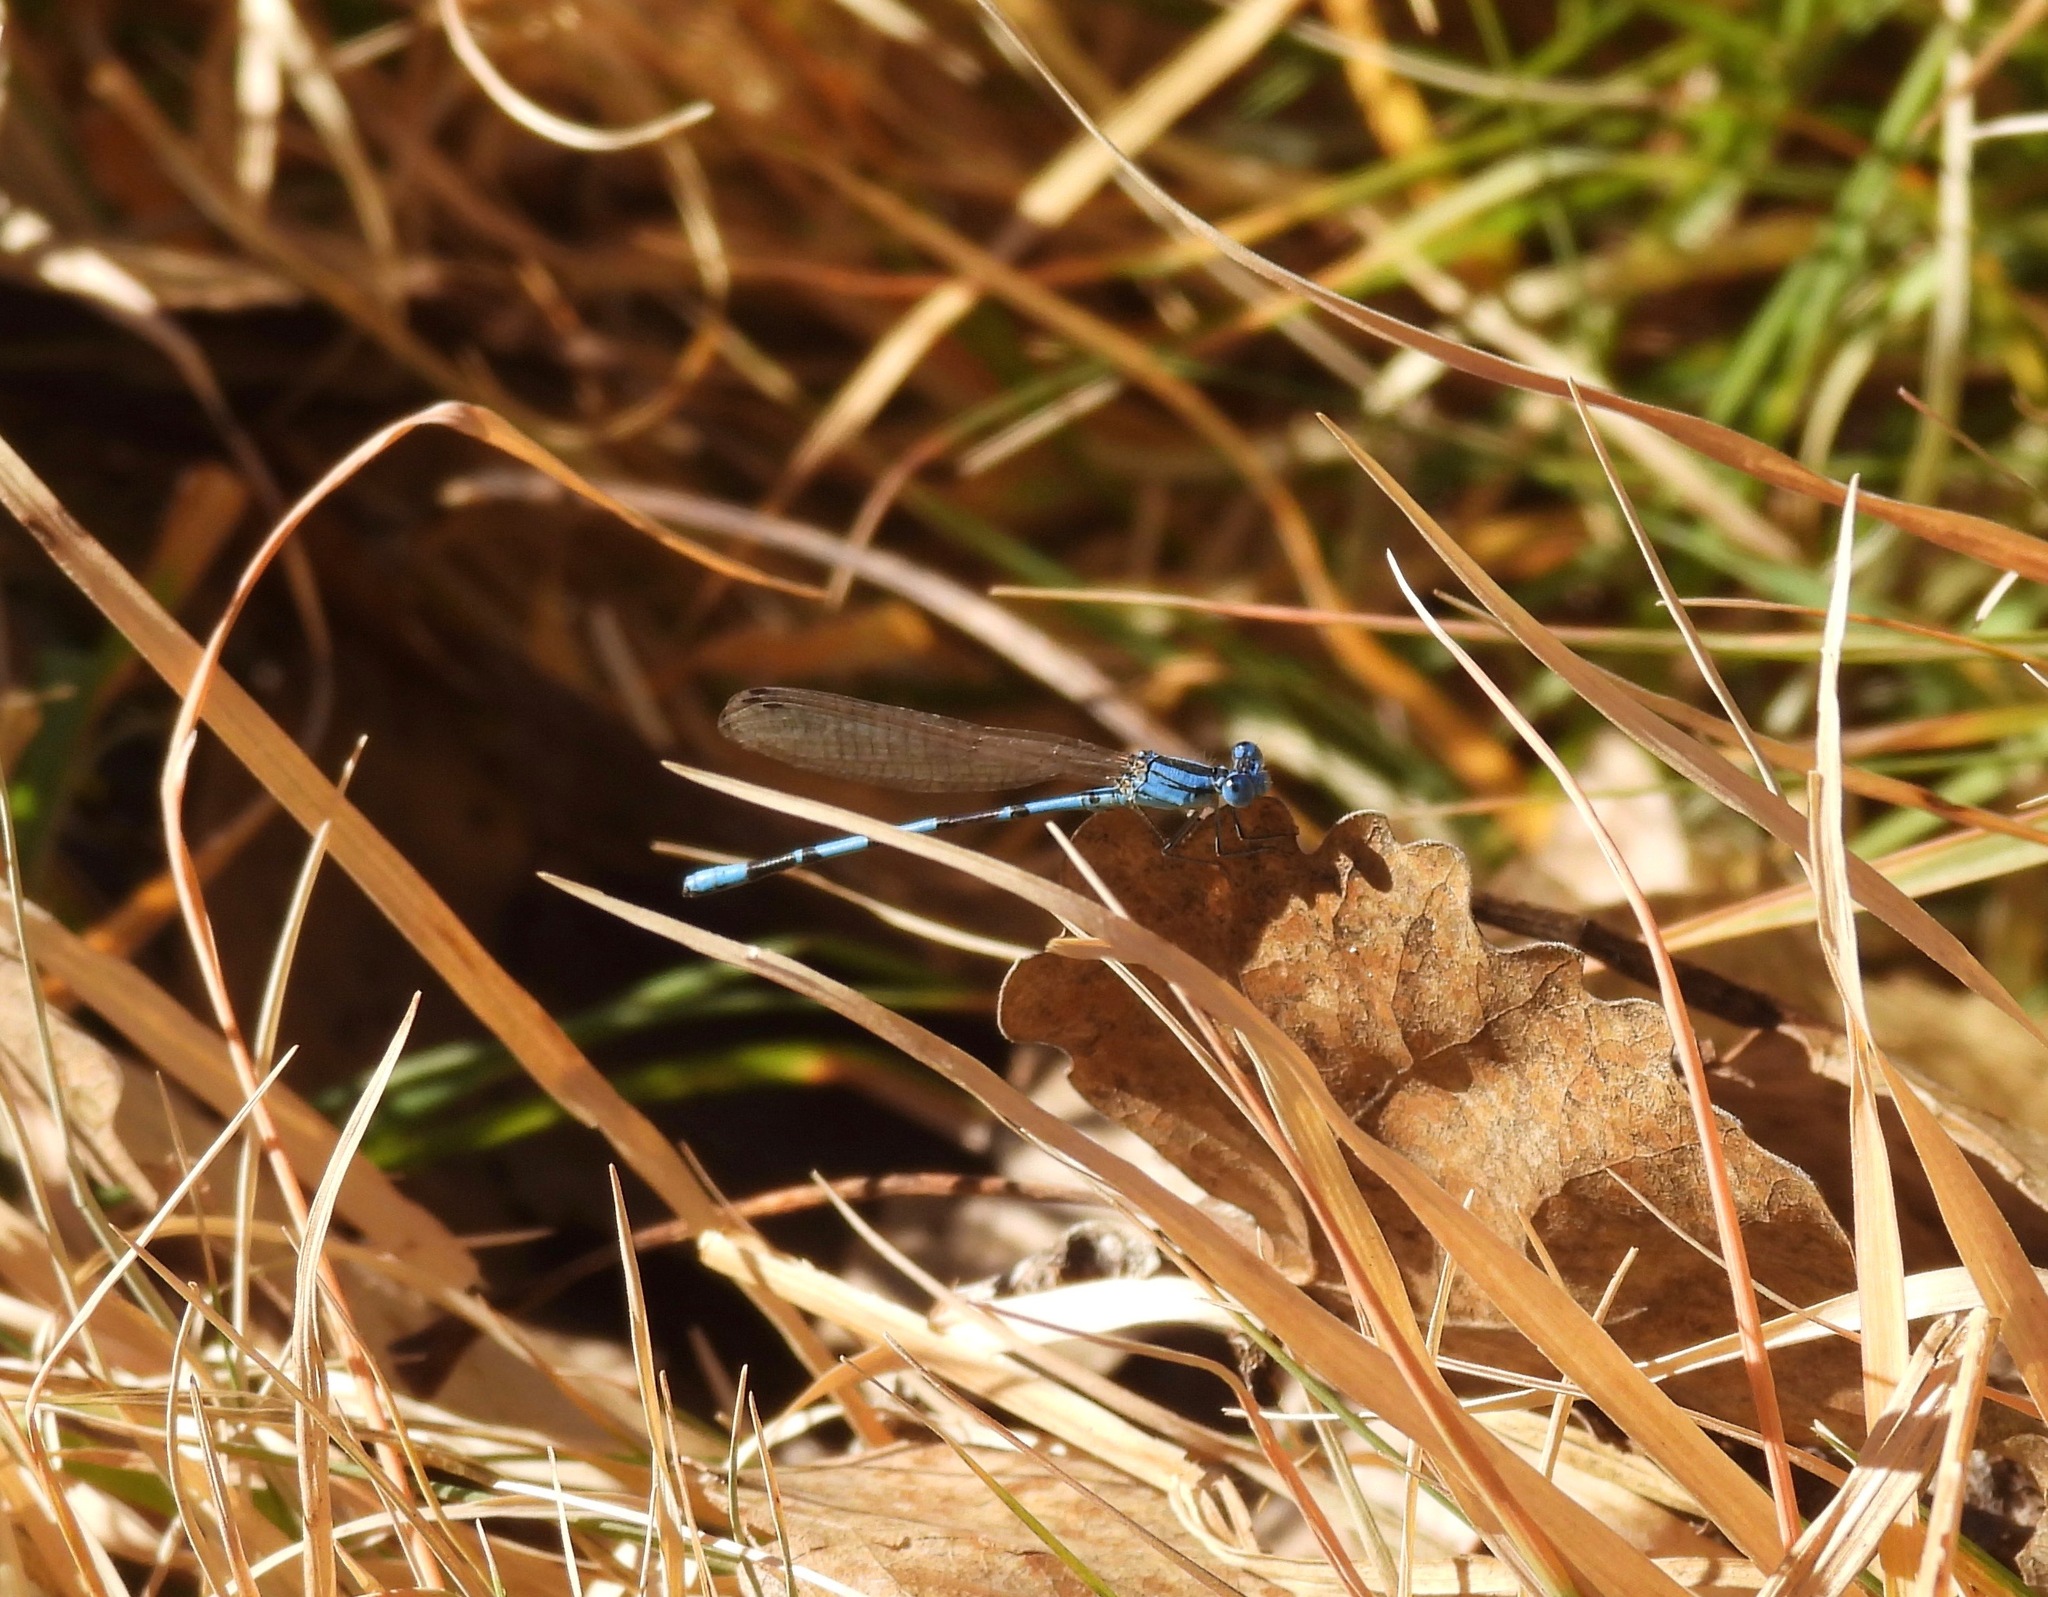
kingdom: Animalia
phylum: Arthropoda
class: Insecta
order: Odonata
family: Coenagrionidae
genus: Argia
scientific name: Argia nahuana
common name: Aztec dancer
